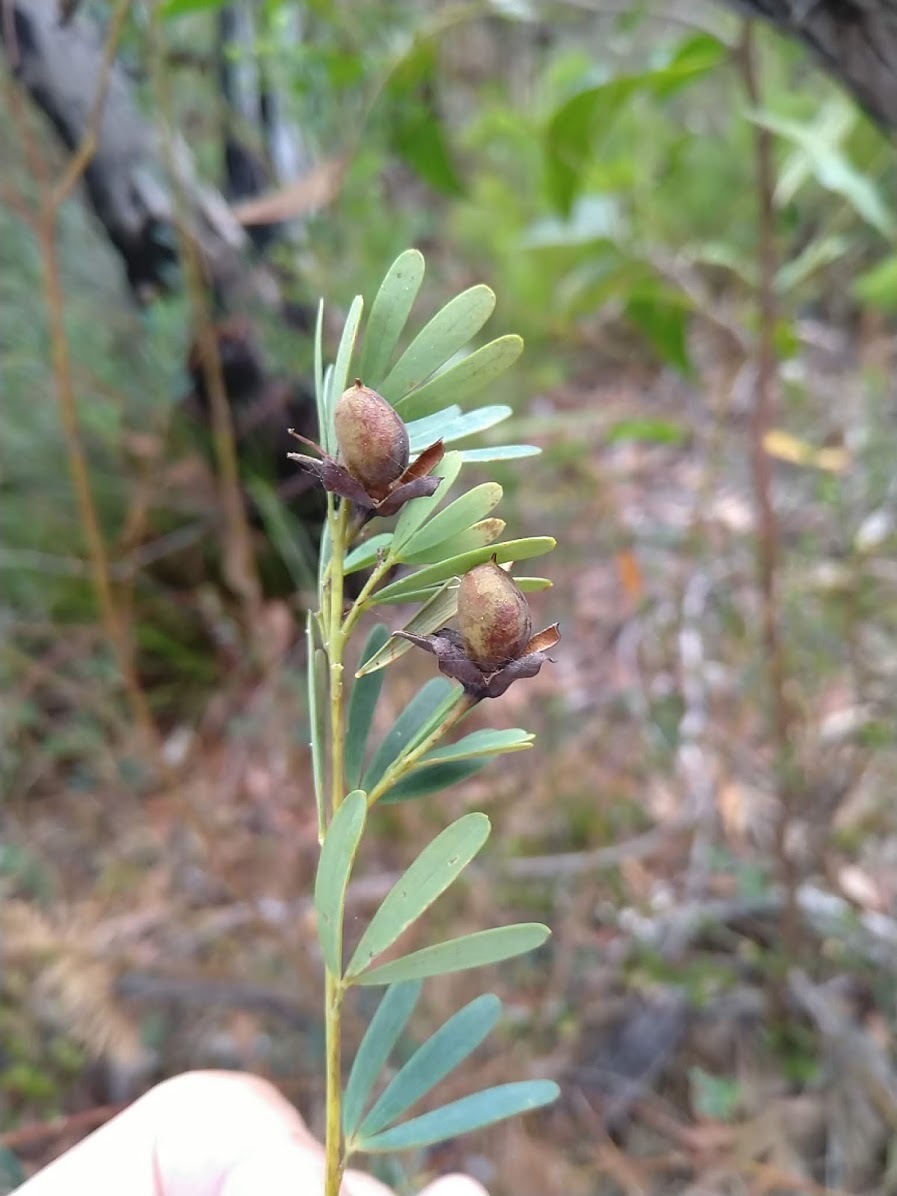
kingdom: Plantae
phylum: Tracheophyta
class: Magnoliopsida
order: Fabales
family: Fabaceae
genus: Gompholobium
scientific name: Gompholobium virgatum
